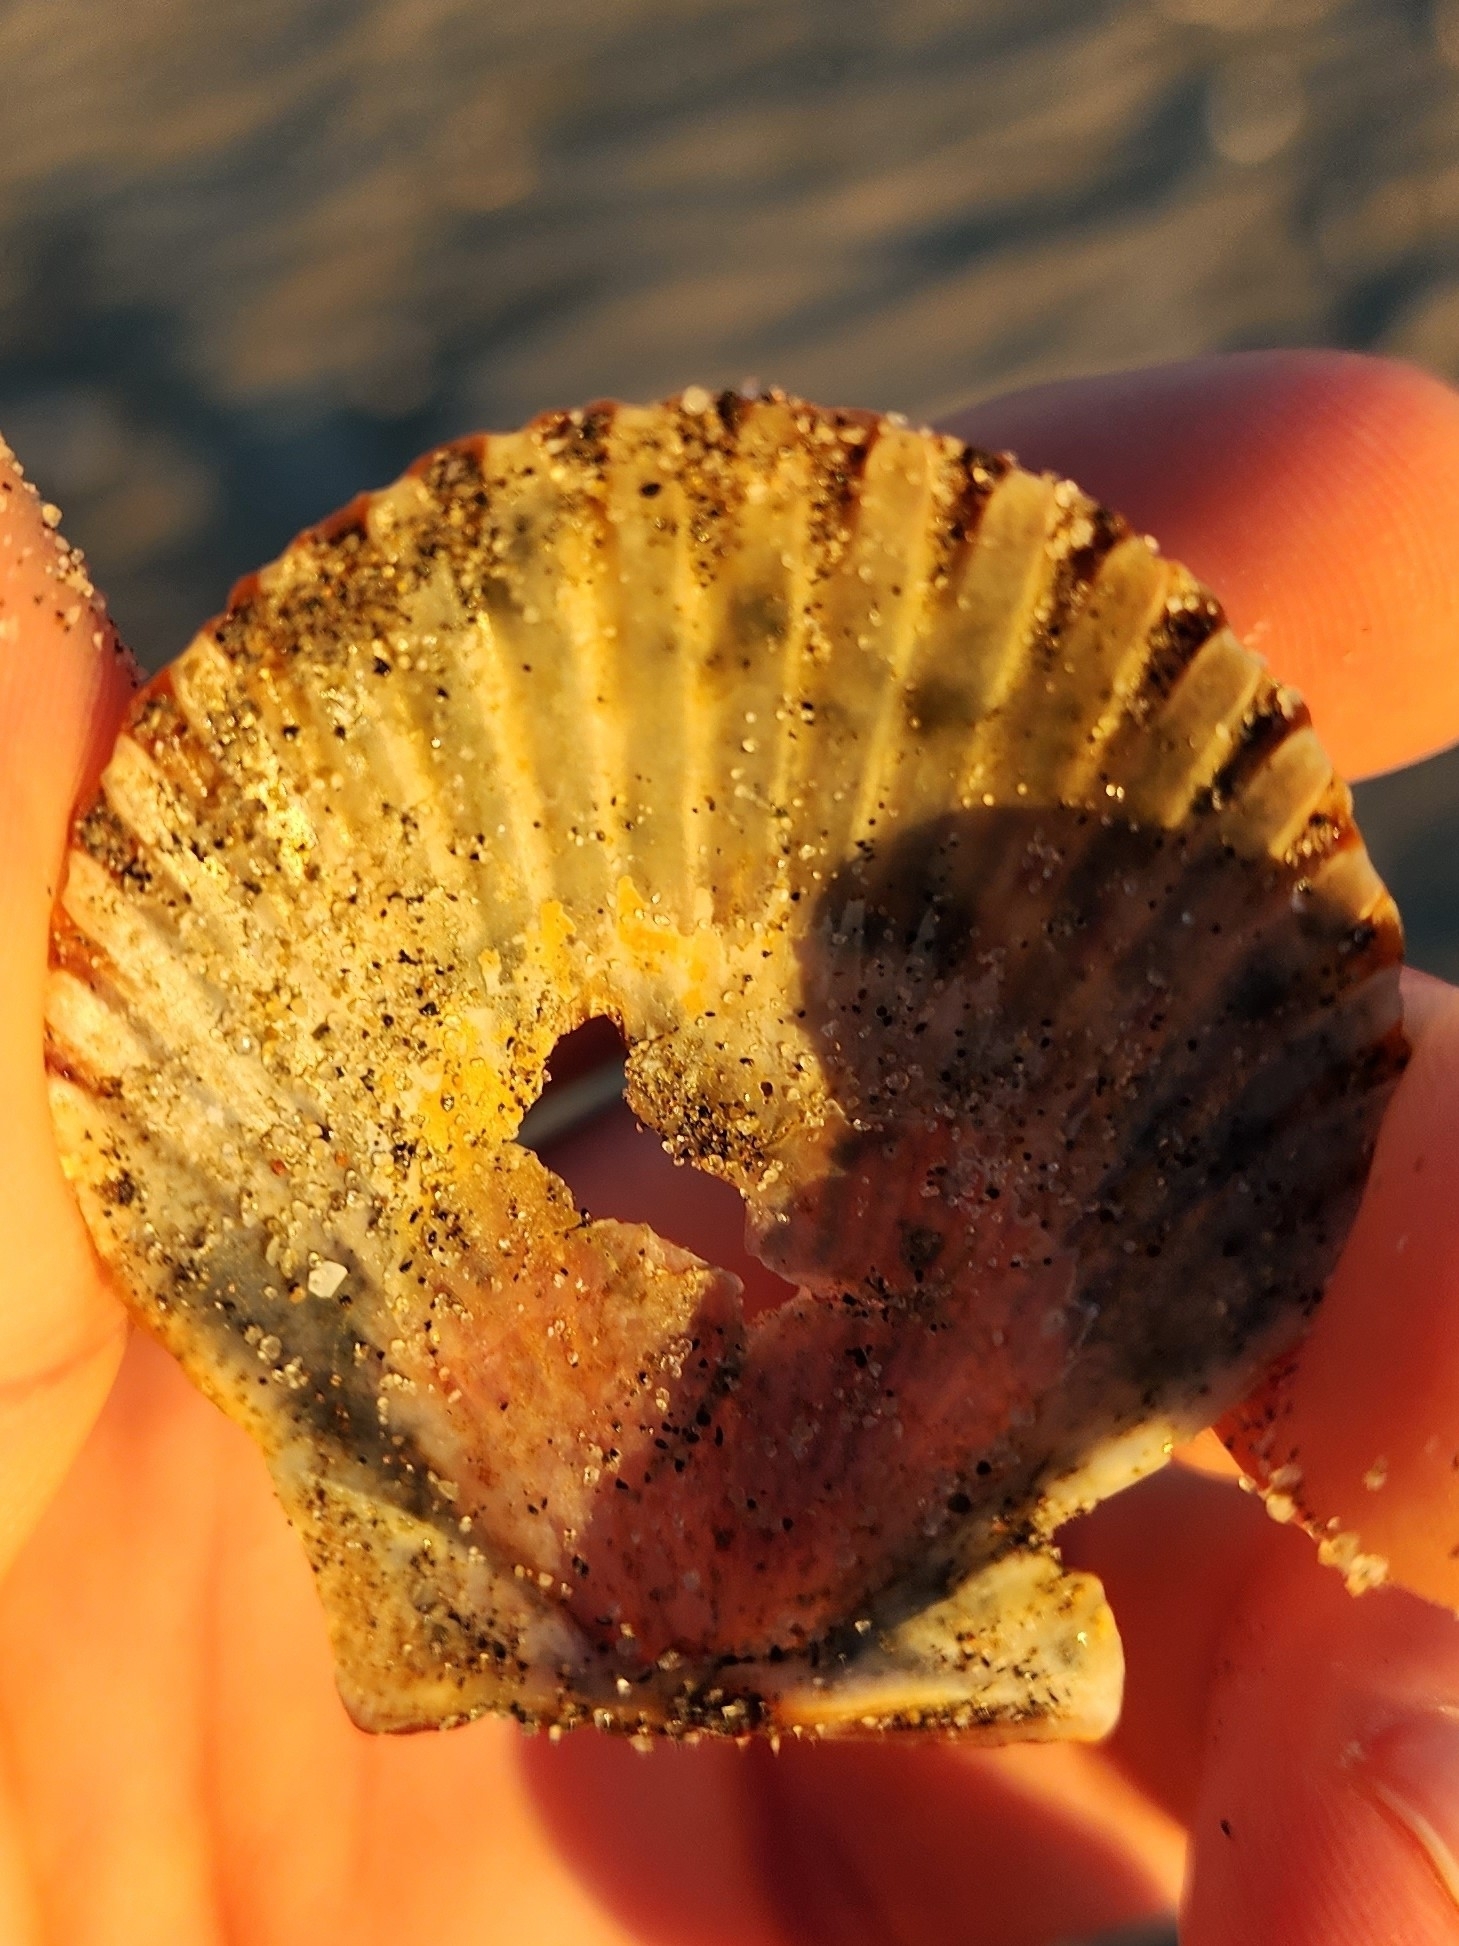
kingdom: Animalia
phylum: Mollusca
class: Bivalvia
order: Pectinida
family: Pectinidae
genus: Argopecten
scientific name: Argopecten irradians
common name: Atlantic bay scallop
